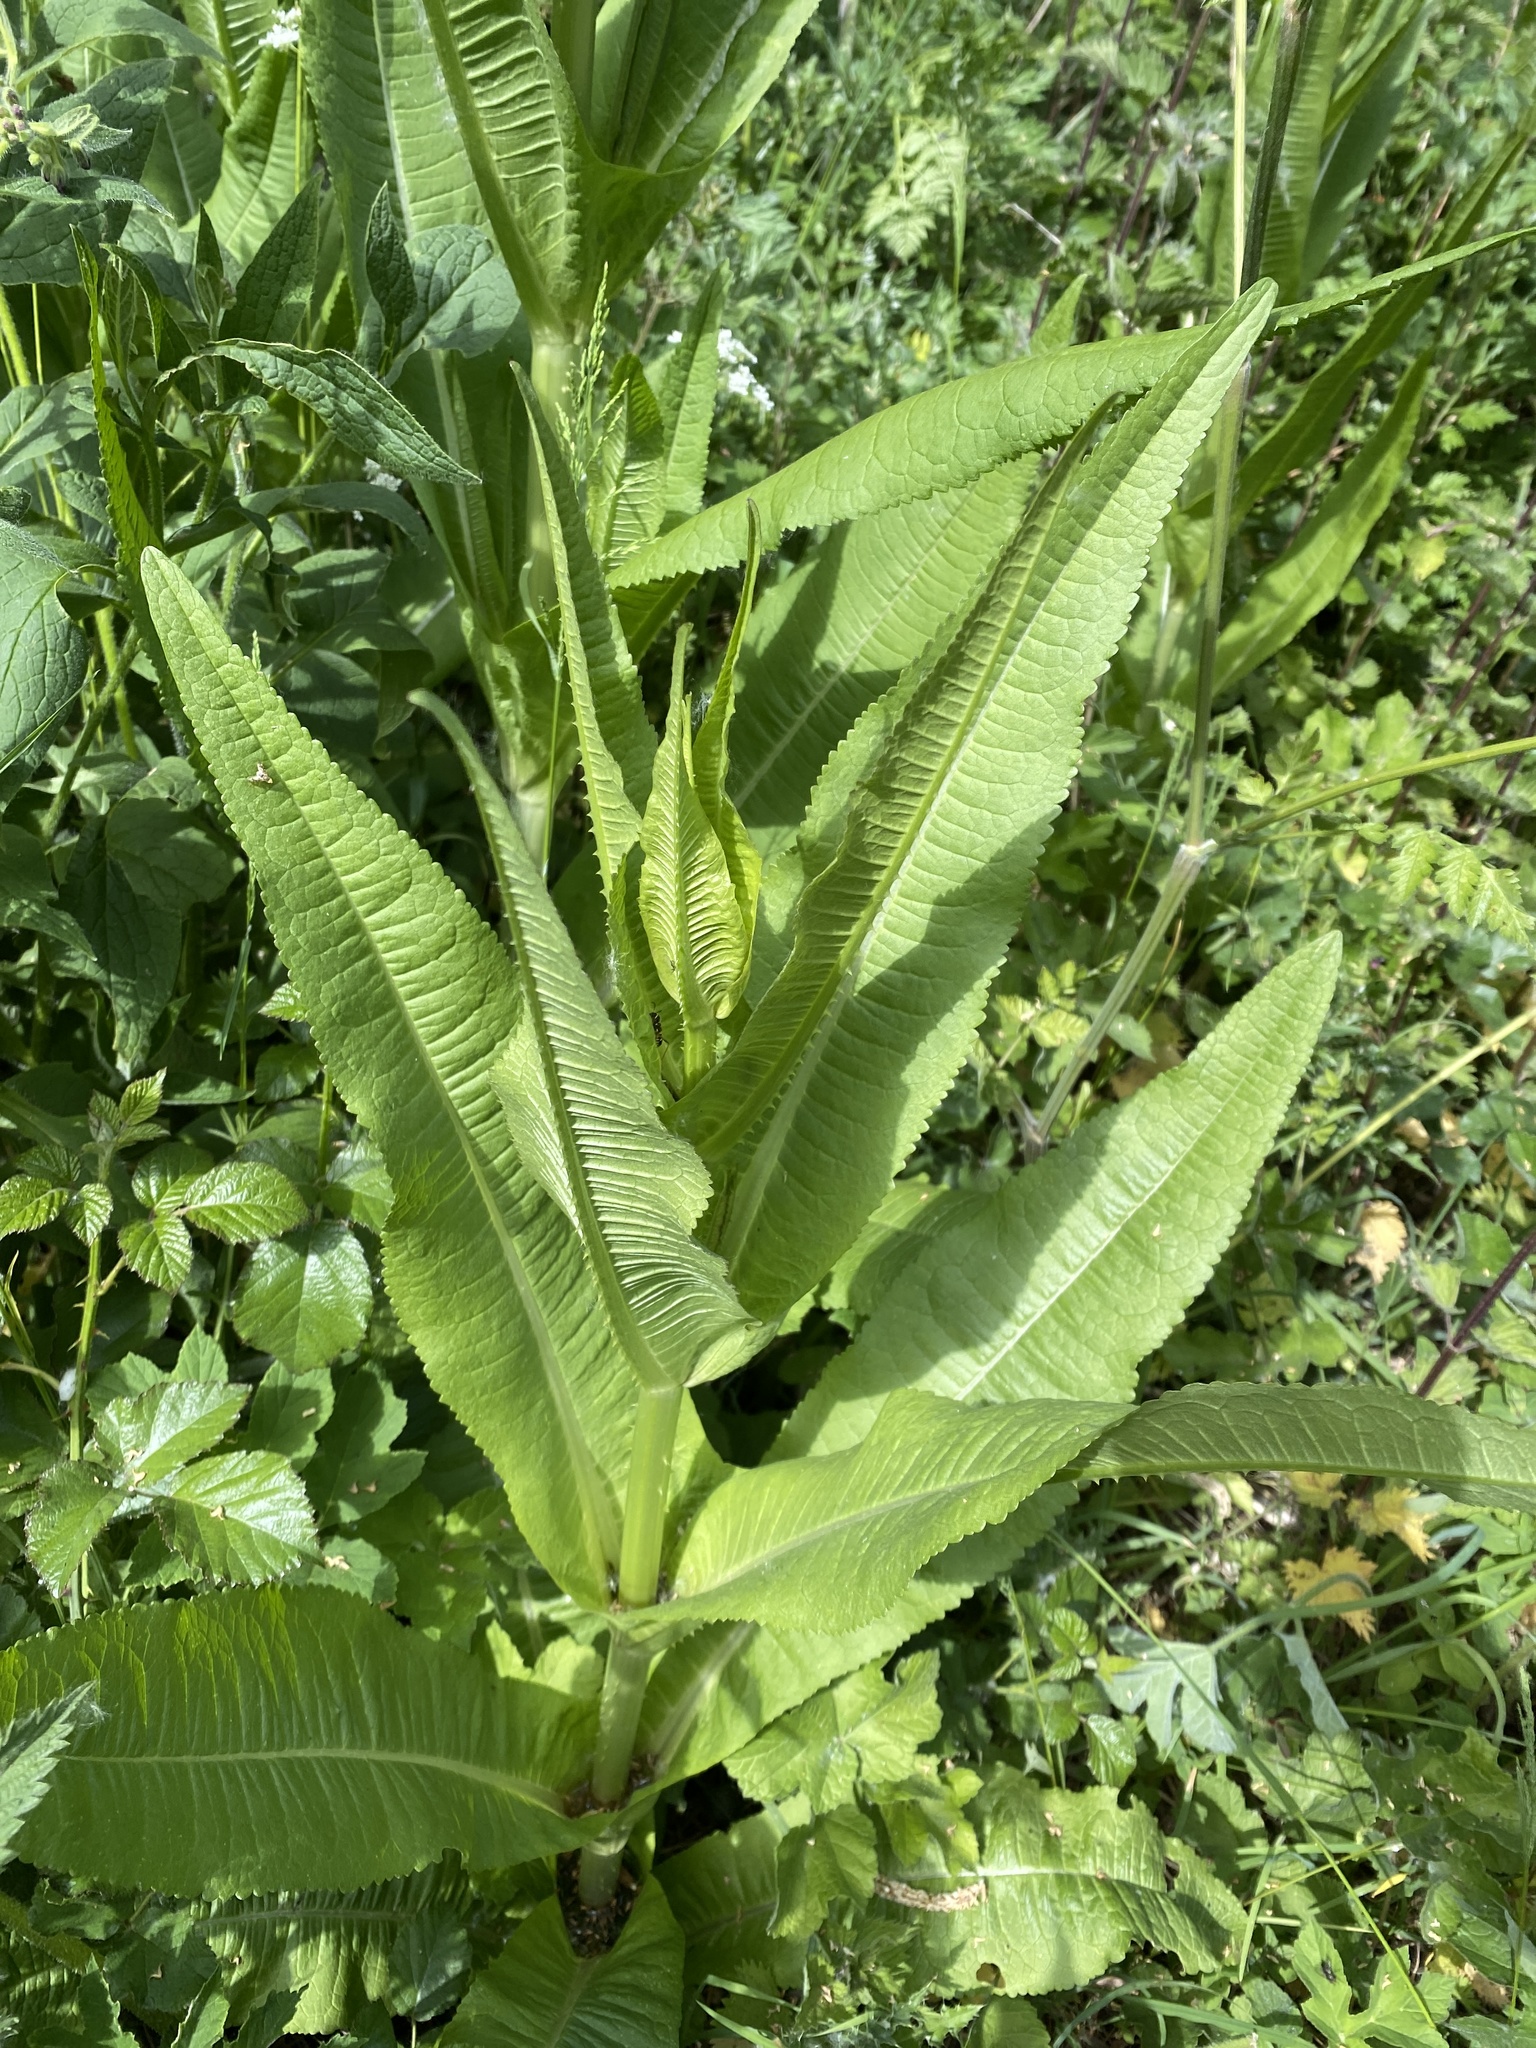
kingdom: Plantae
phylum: Tracheophyta
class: Magnoliopsida
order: Dipsacales
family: Caprifoliaceae
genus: Dipsacus
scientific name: Dipsacus fullonum
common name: Teasel
